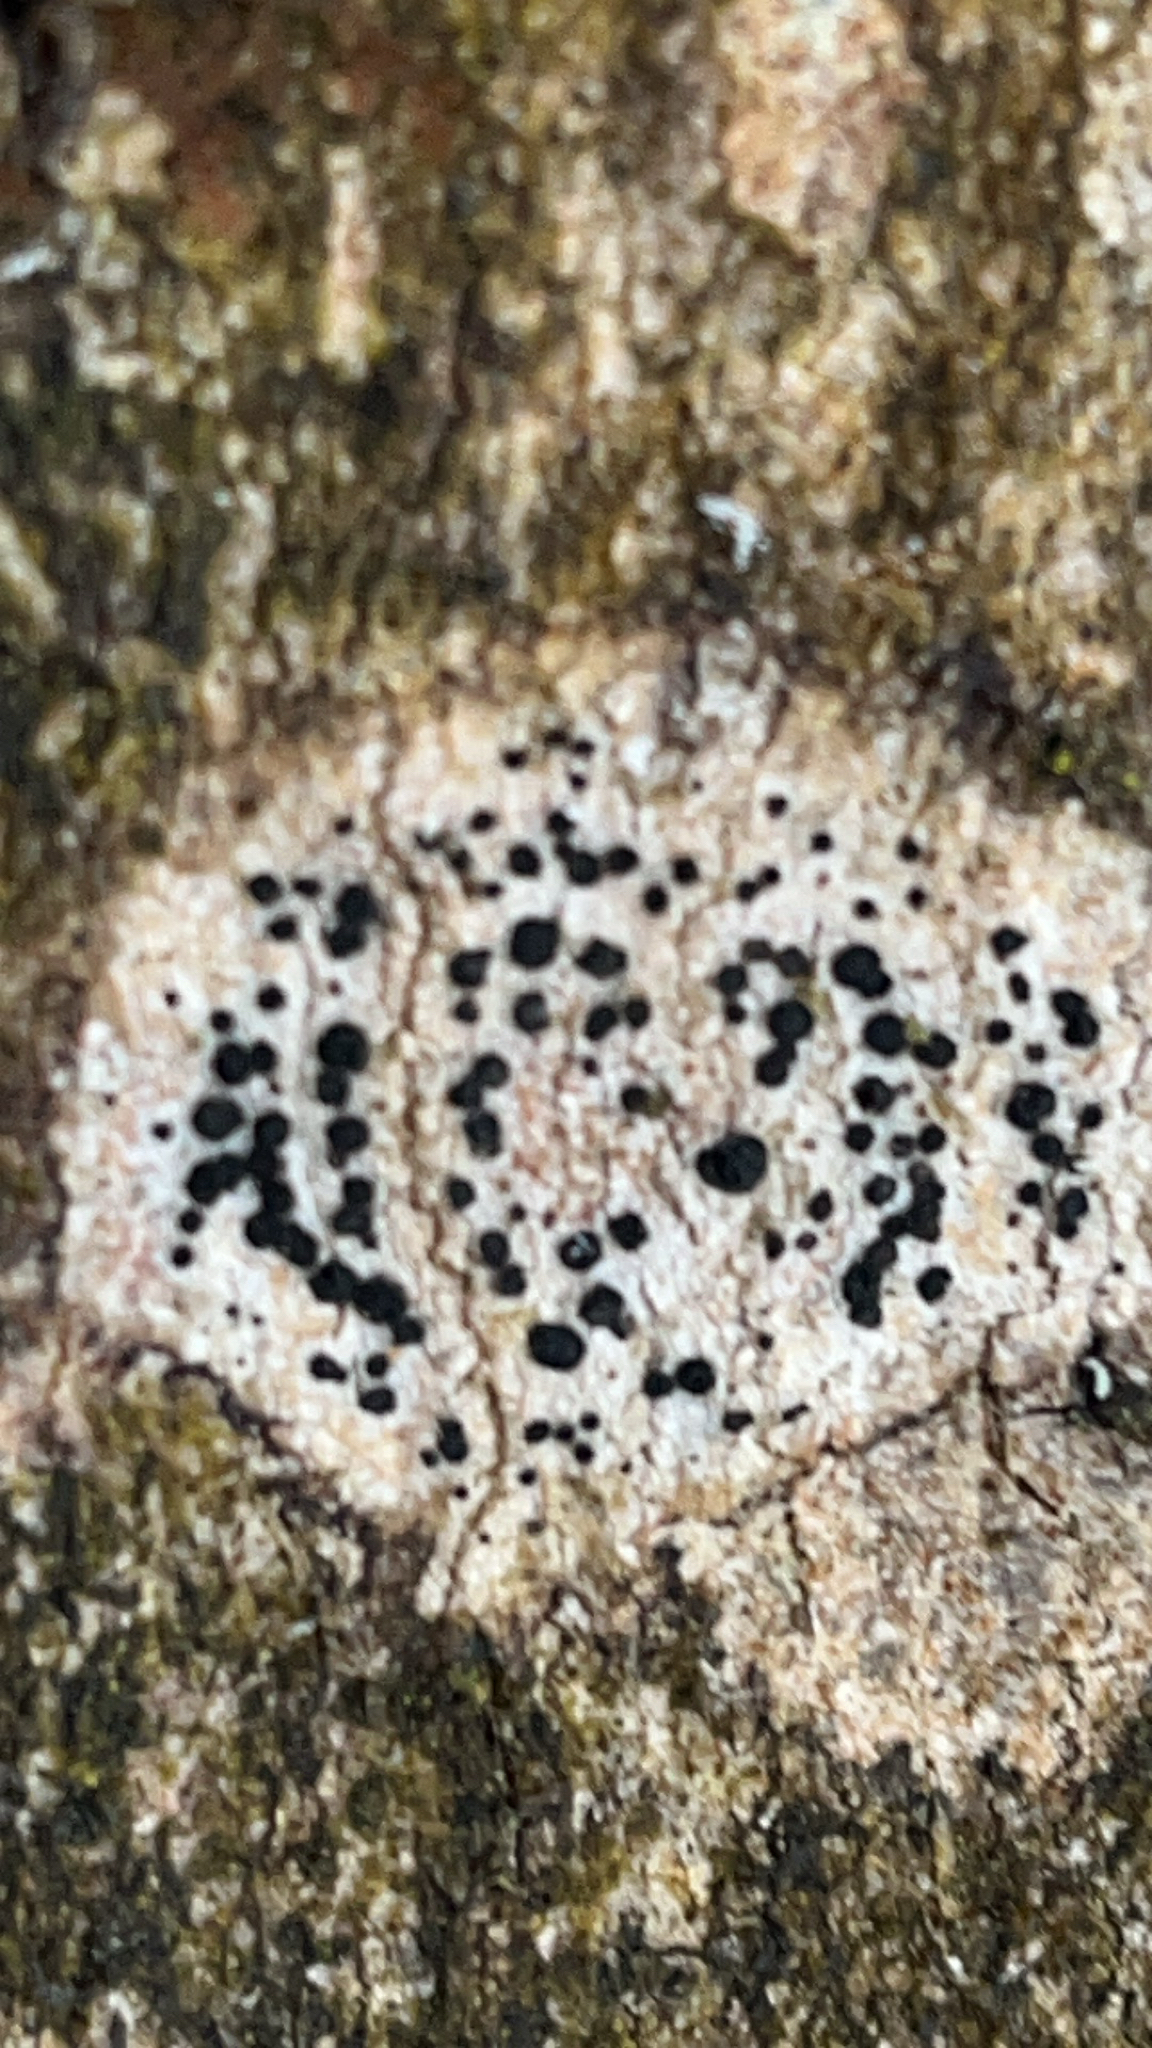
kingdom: Fungi
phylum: Ascomycota
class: Lecanoromycetes
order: Caliciales
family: Caliciaceae
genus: Buellia
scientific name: Buellia erubescens
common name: Common button lichen
